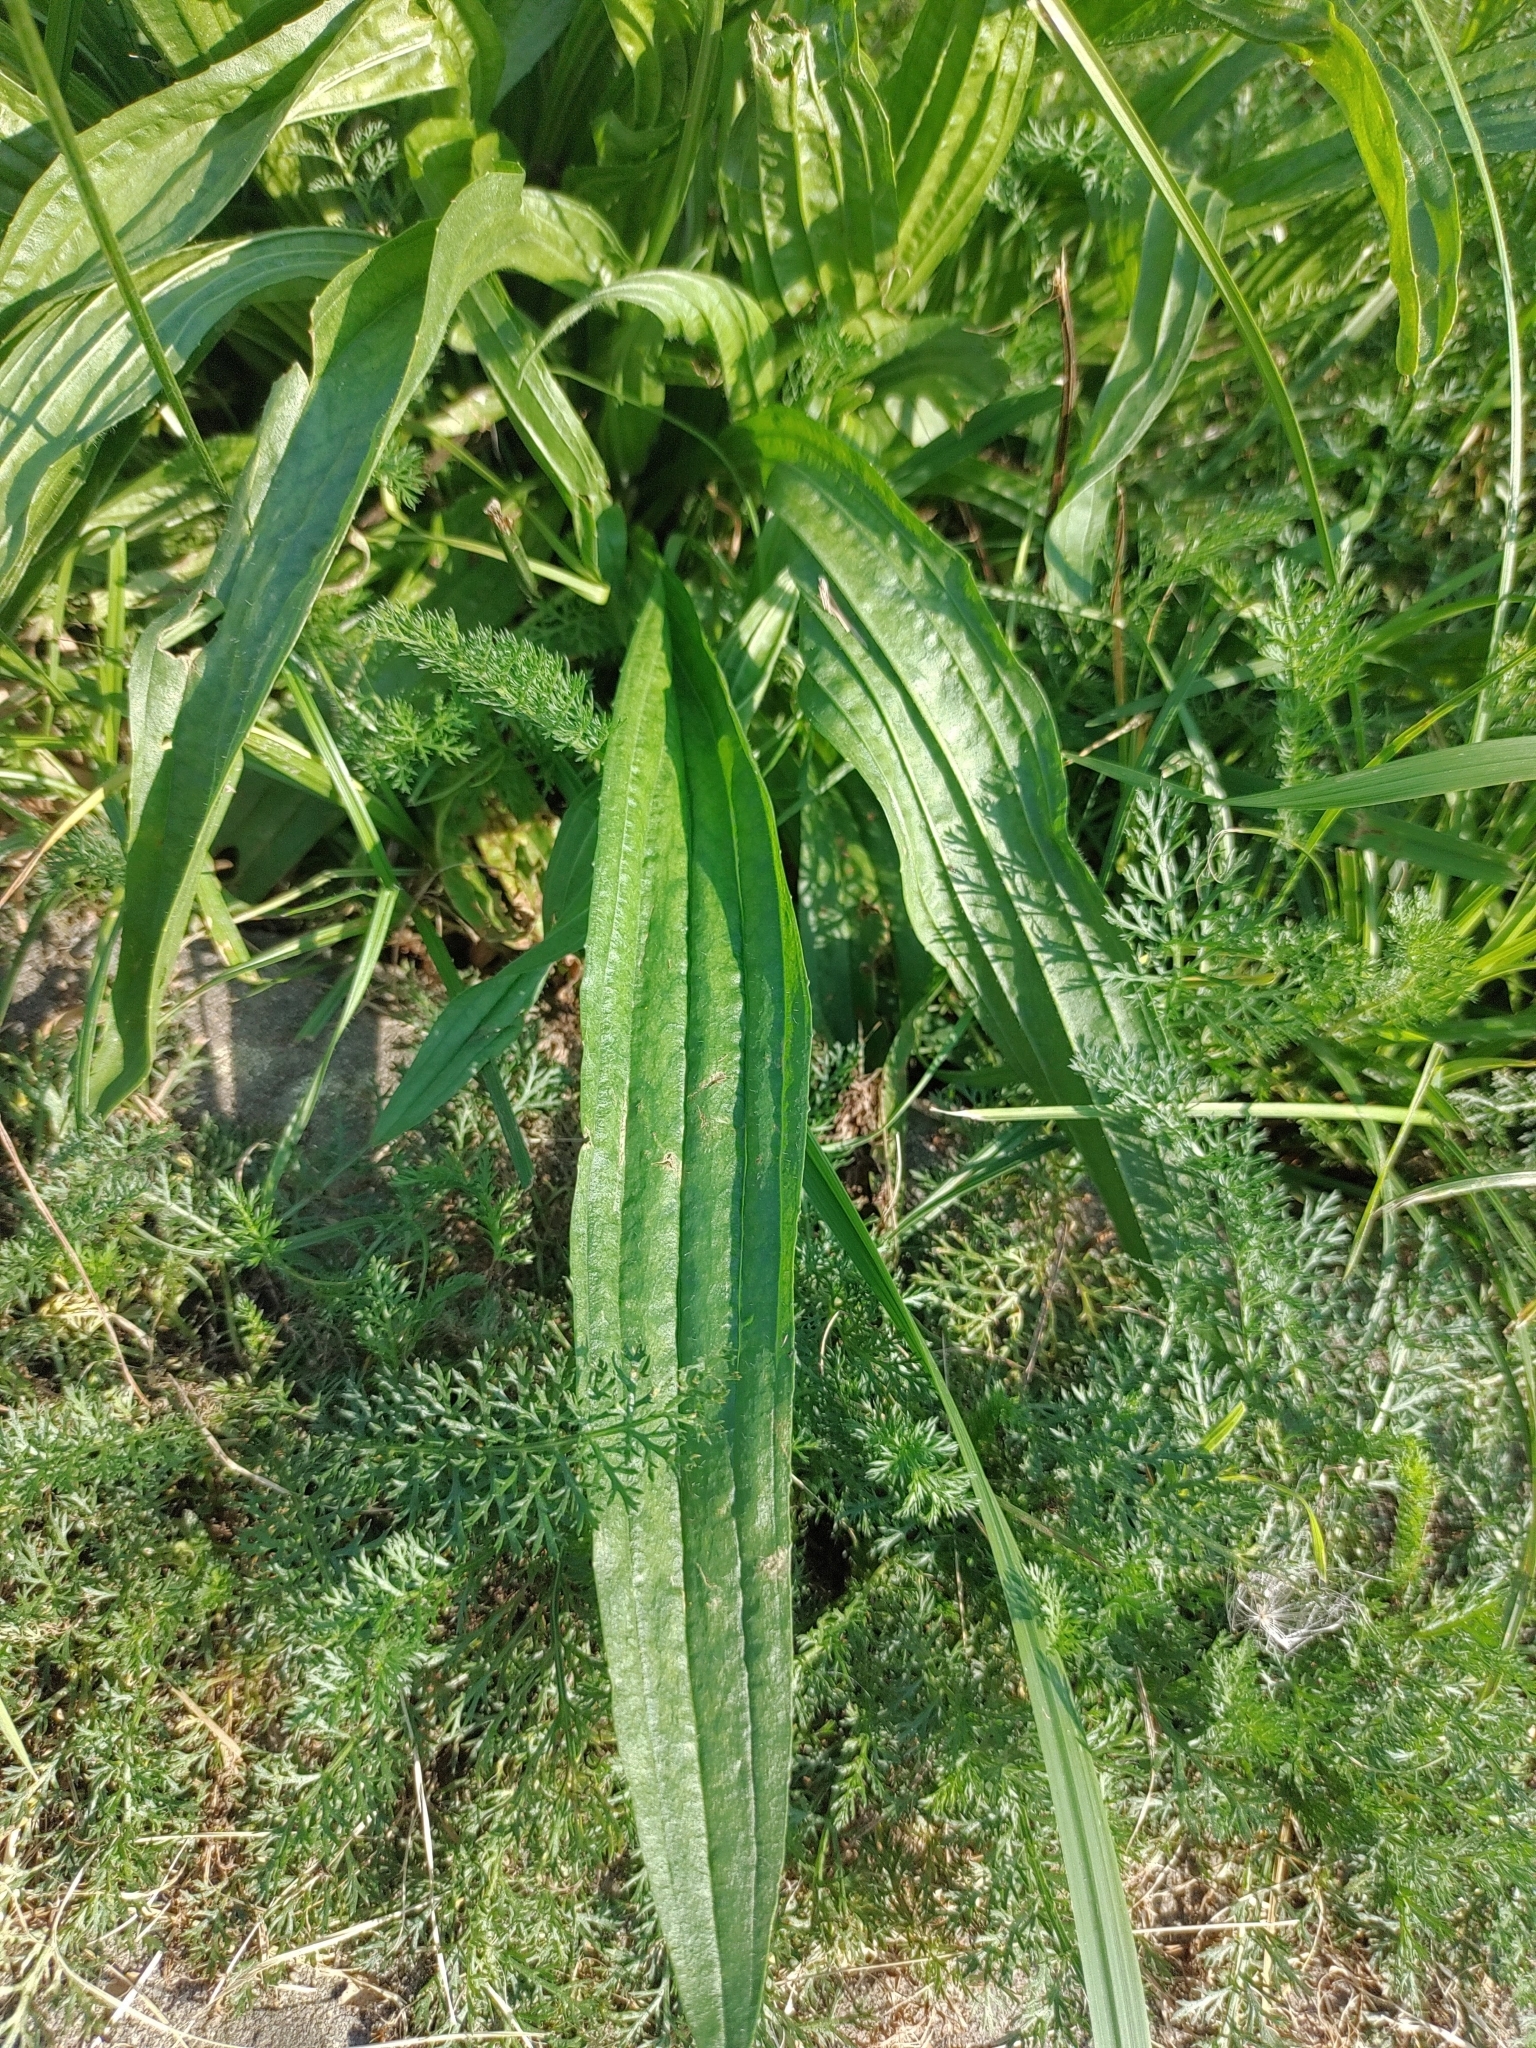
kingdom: Plantae
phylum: Tracheophyta
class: Magnoliopsida
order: Lamiales
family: Plantaginaceae
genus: Plantago
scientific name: Plantago lanceolata
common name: Ribwort plantain
